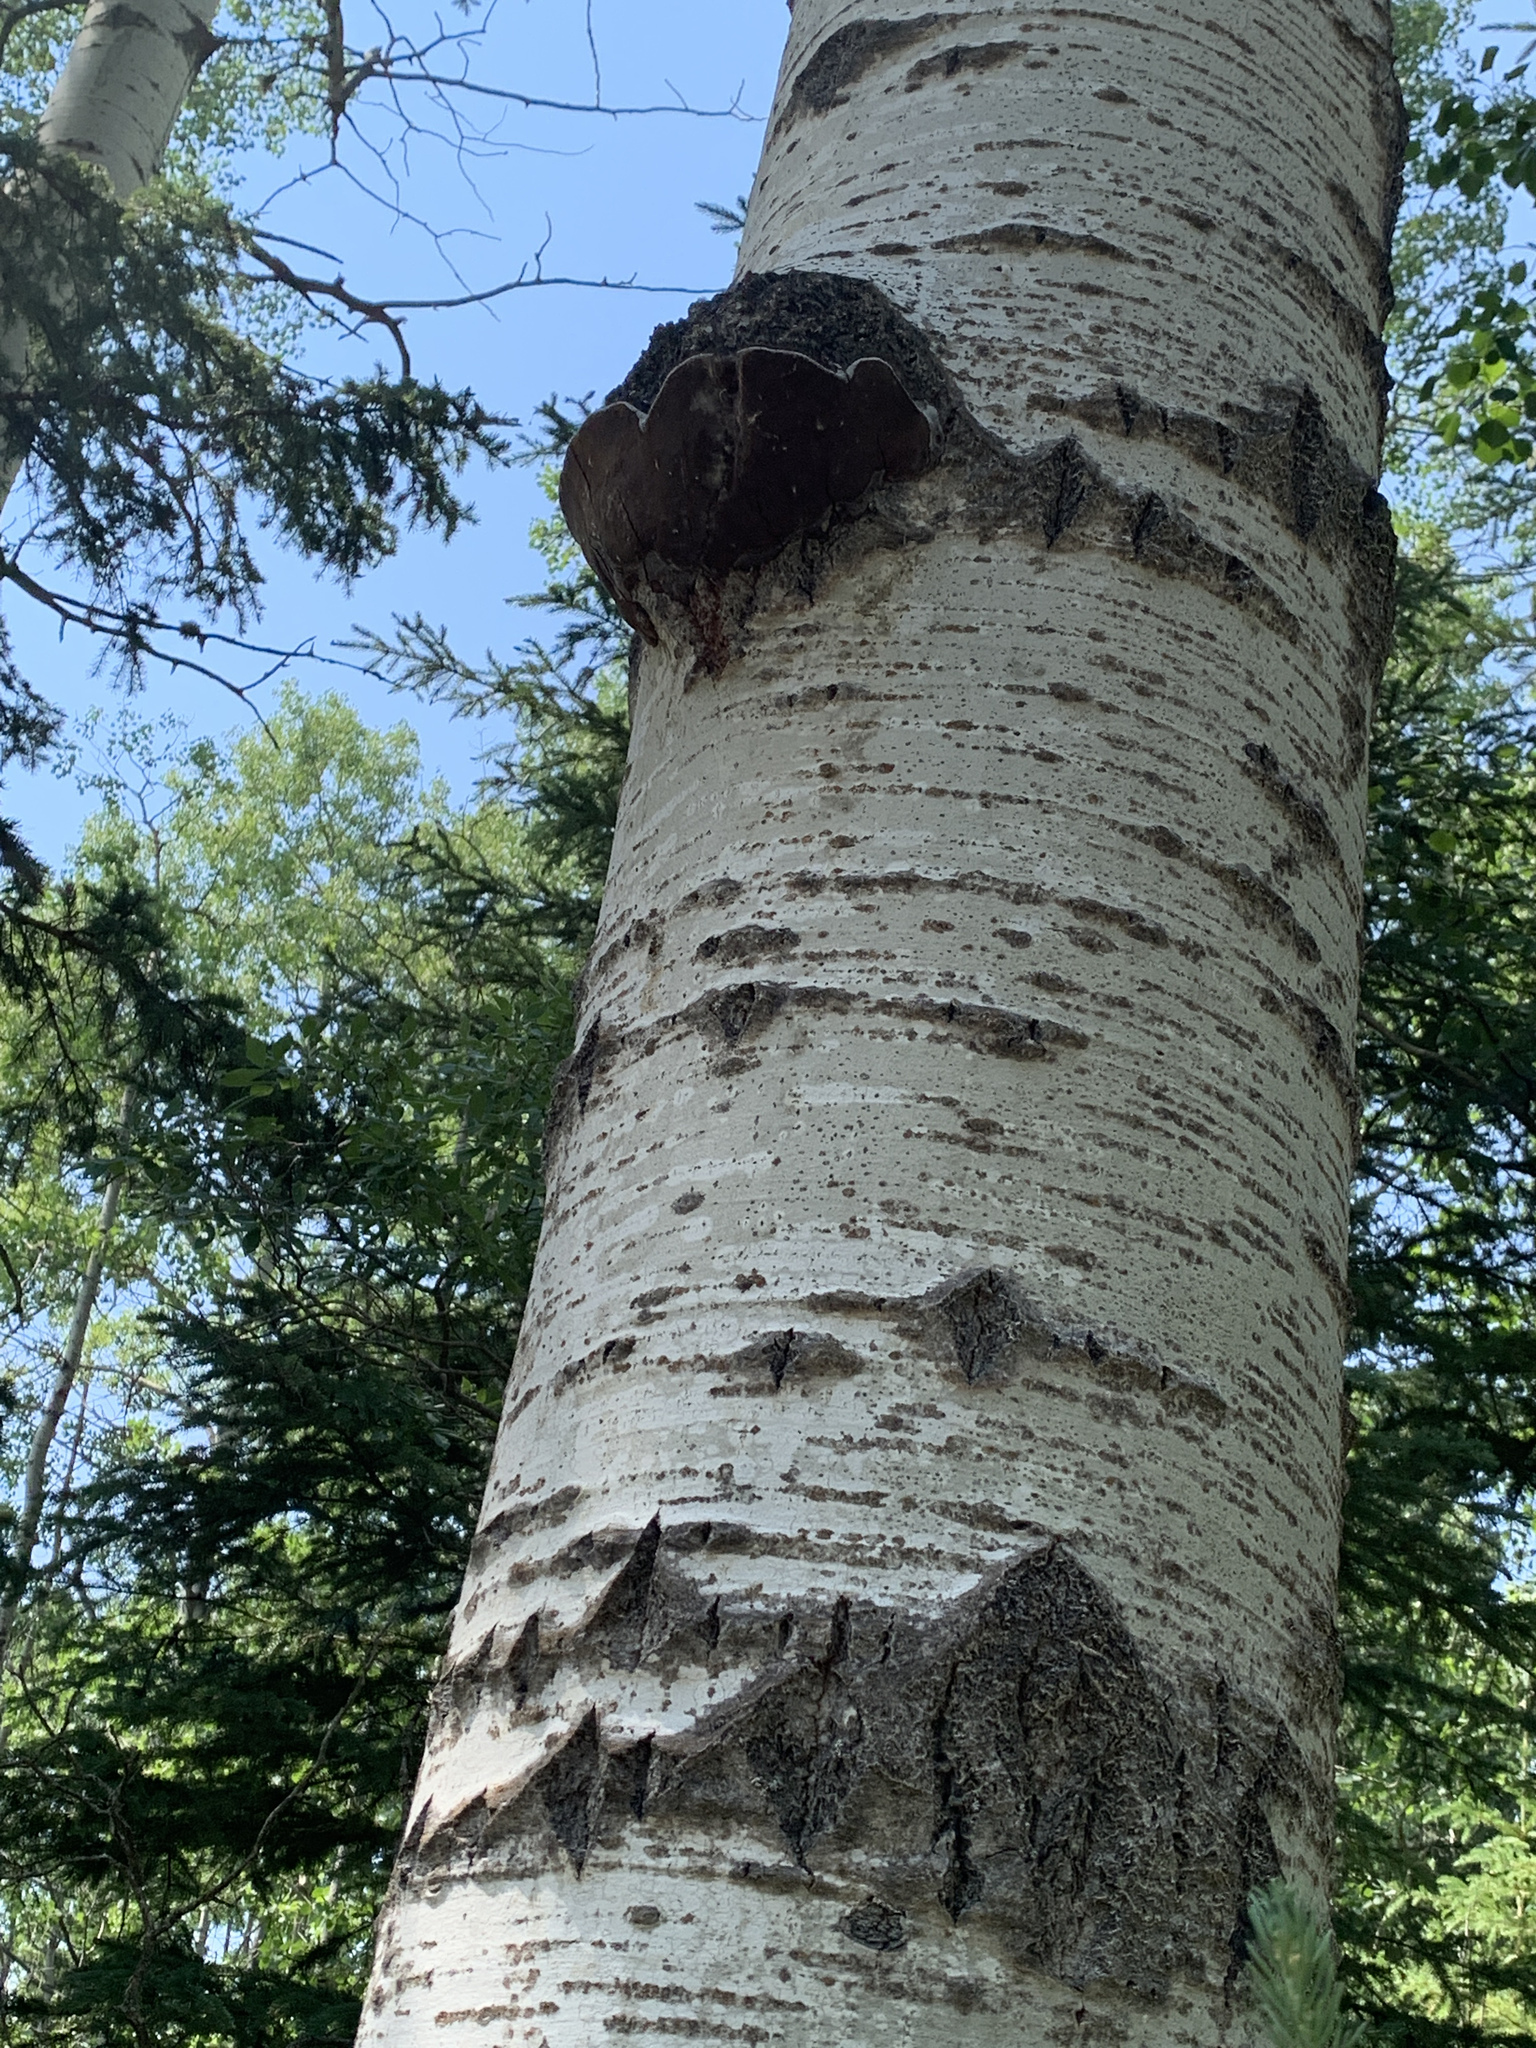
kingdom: Fungi
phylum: Basidiomycota
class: Agaricomycetes
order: Hymenochaetales
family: Hymenochaetaceae
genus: Phellinus
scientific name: Phellinus tremulae
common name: Aspen bracket
